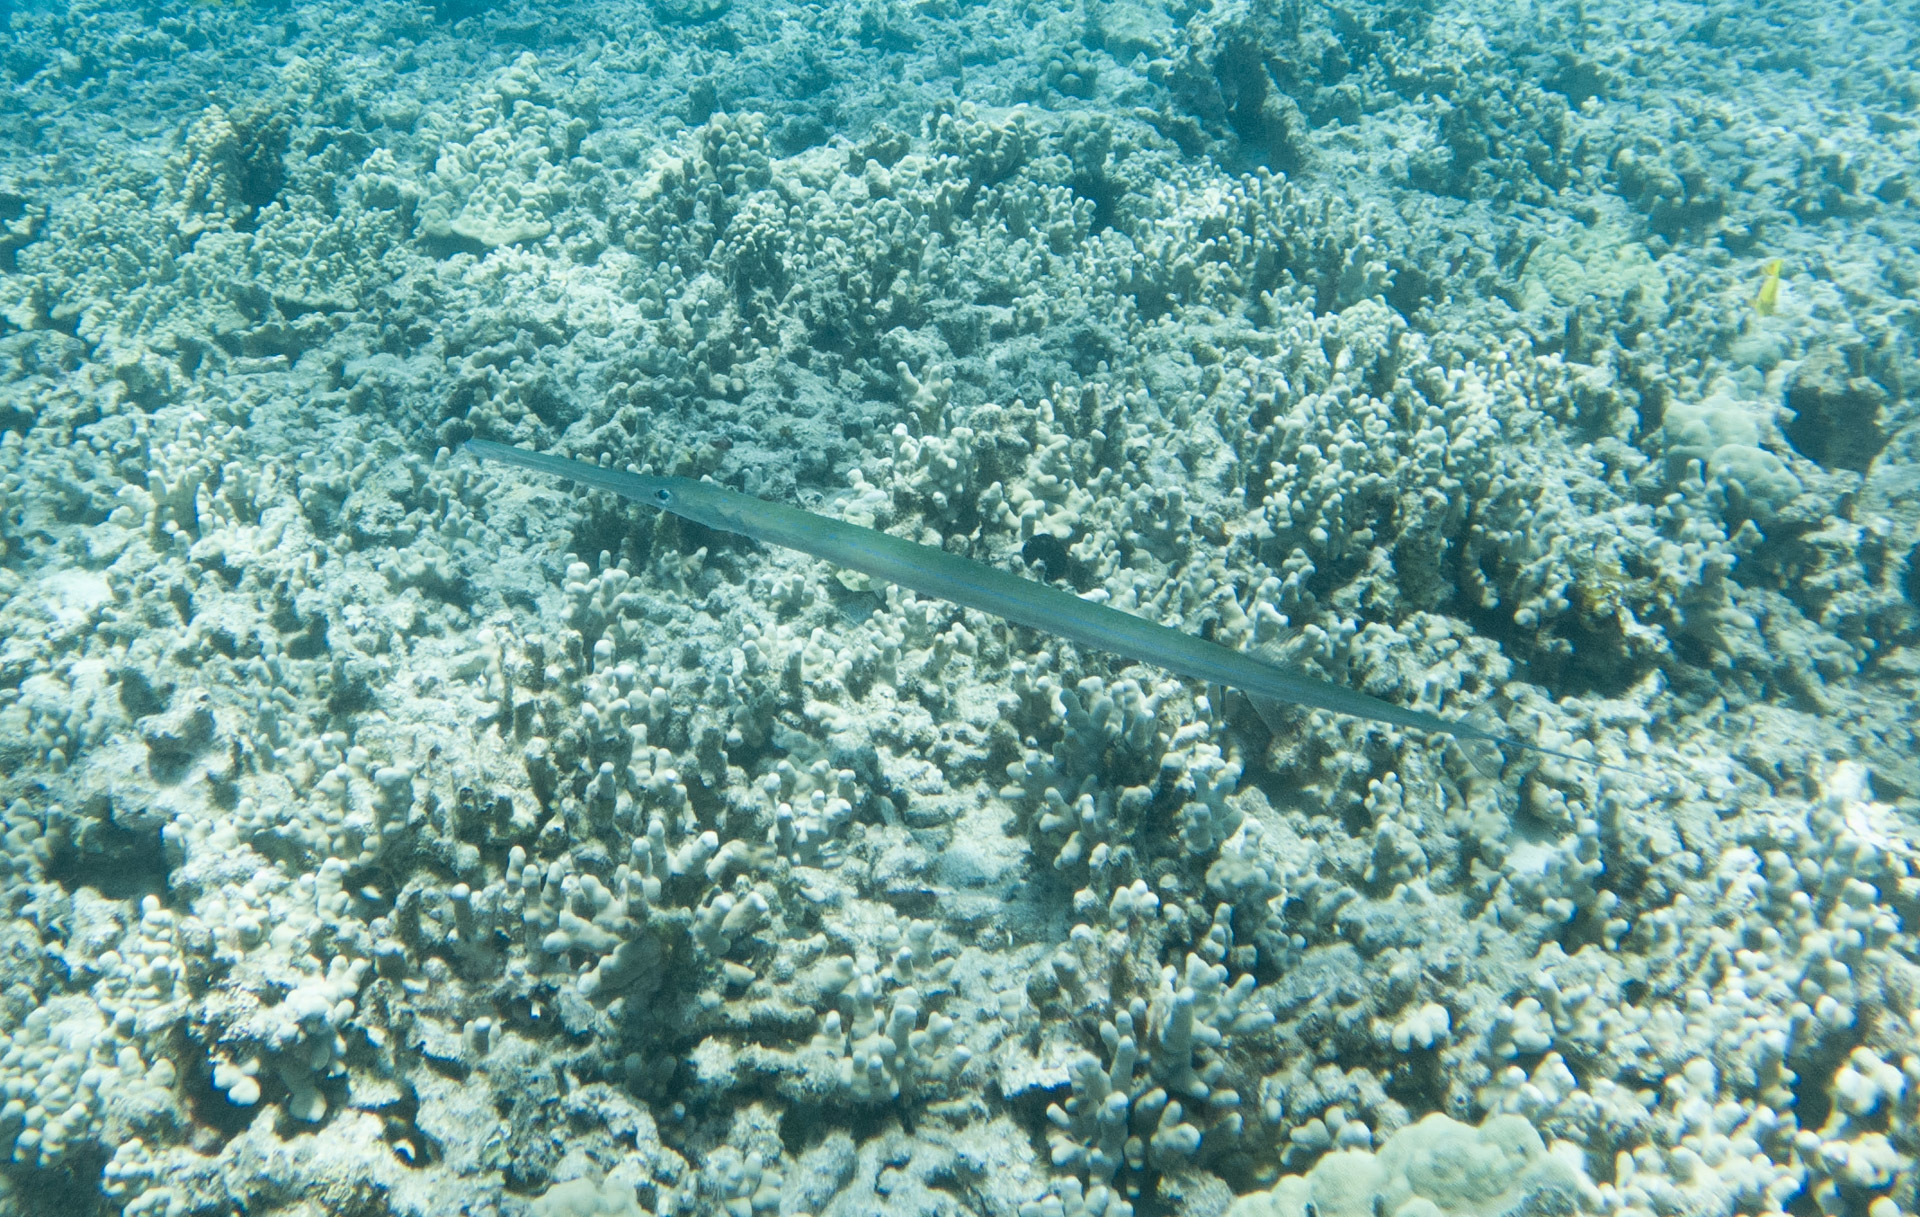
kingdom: Animalia
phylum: Chordata
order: Syngnathiformes
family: Fistulariidae
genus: Fistularia
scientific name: Fistularia commersonii
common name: Bluespotted cornetfish
